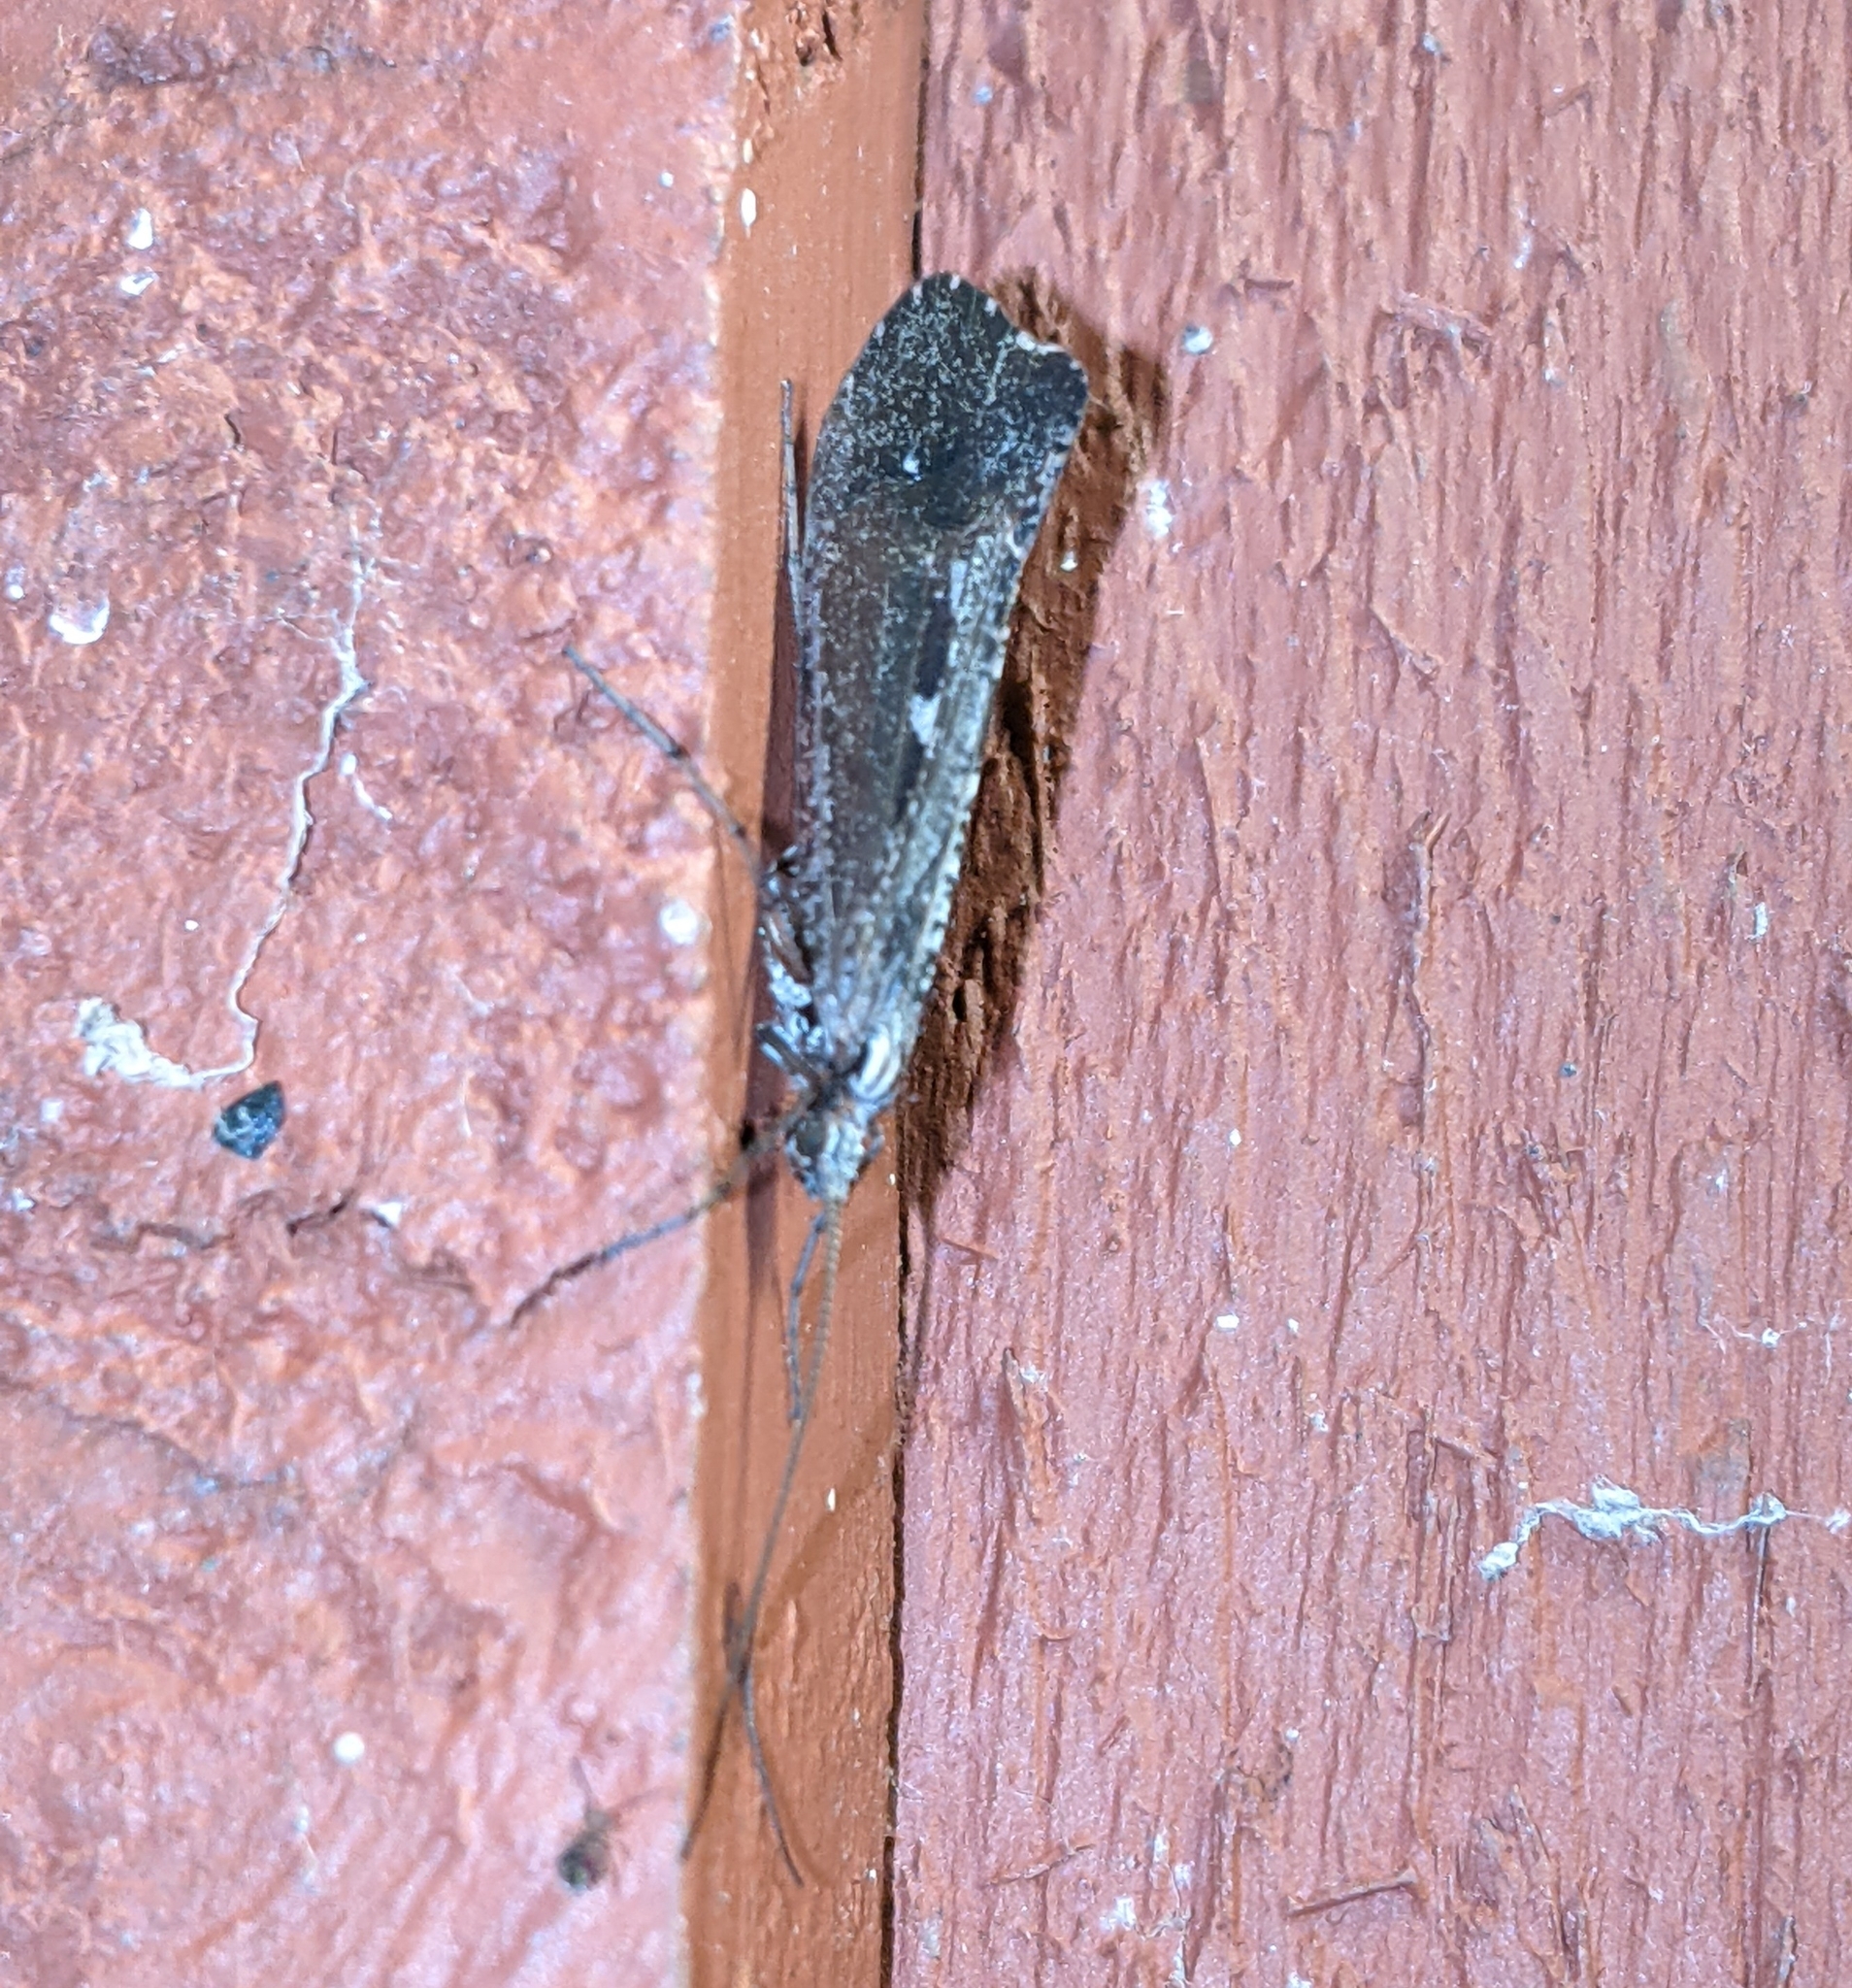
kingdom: Animalia
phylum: Arthropoda
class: Insecta
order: Trichoptera
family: Limnephilidae
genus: Glyphopsyche
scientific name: Glyphopsyche irrorata
